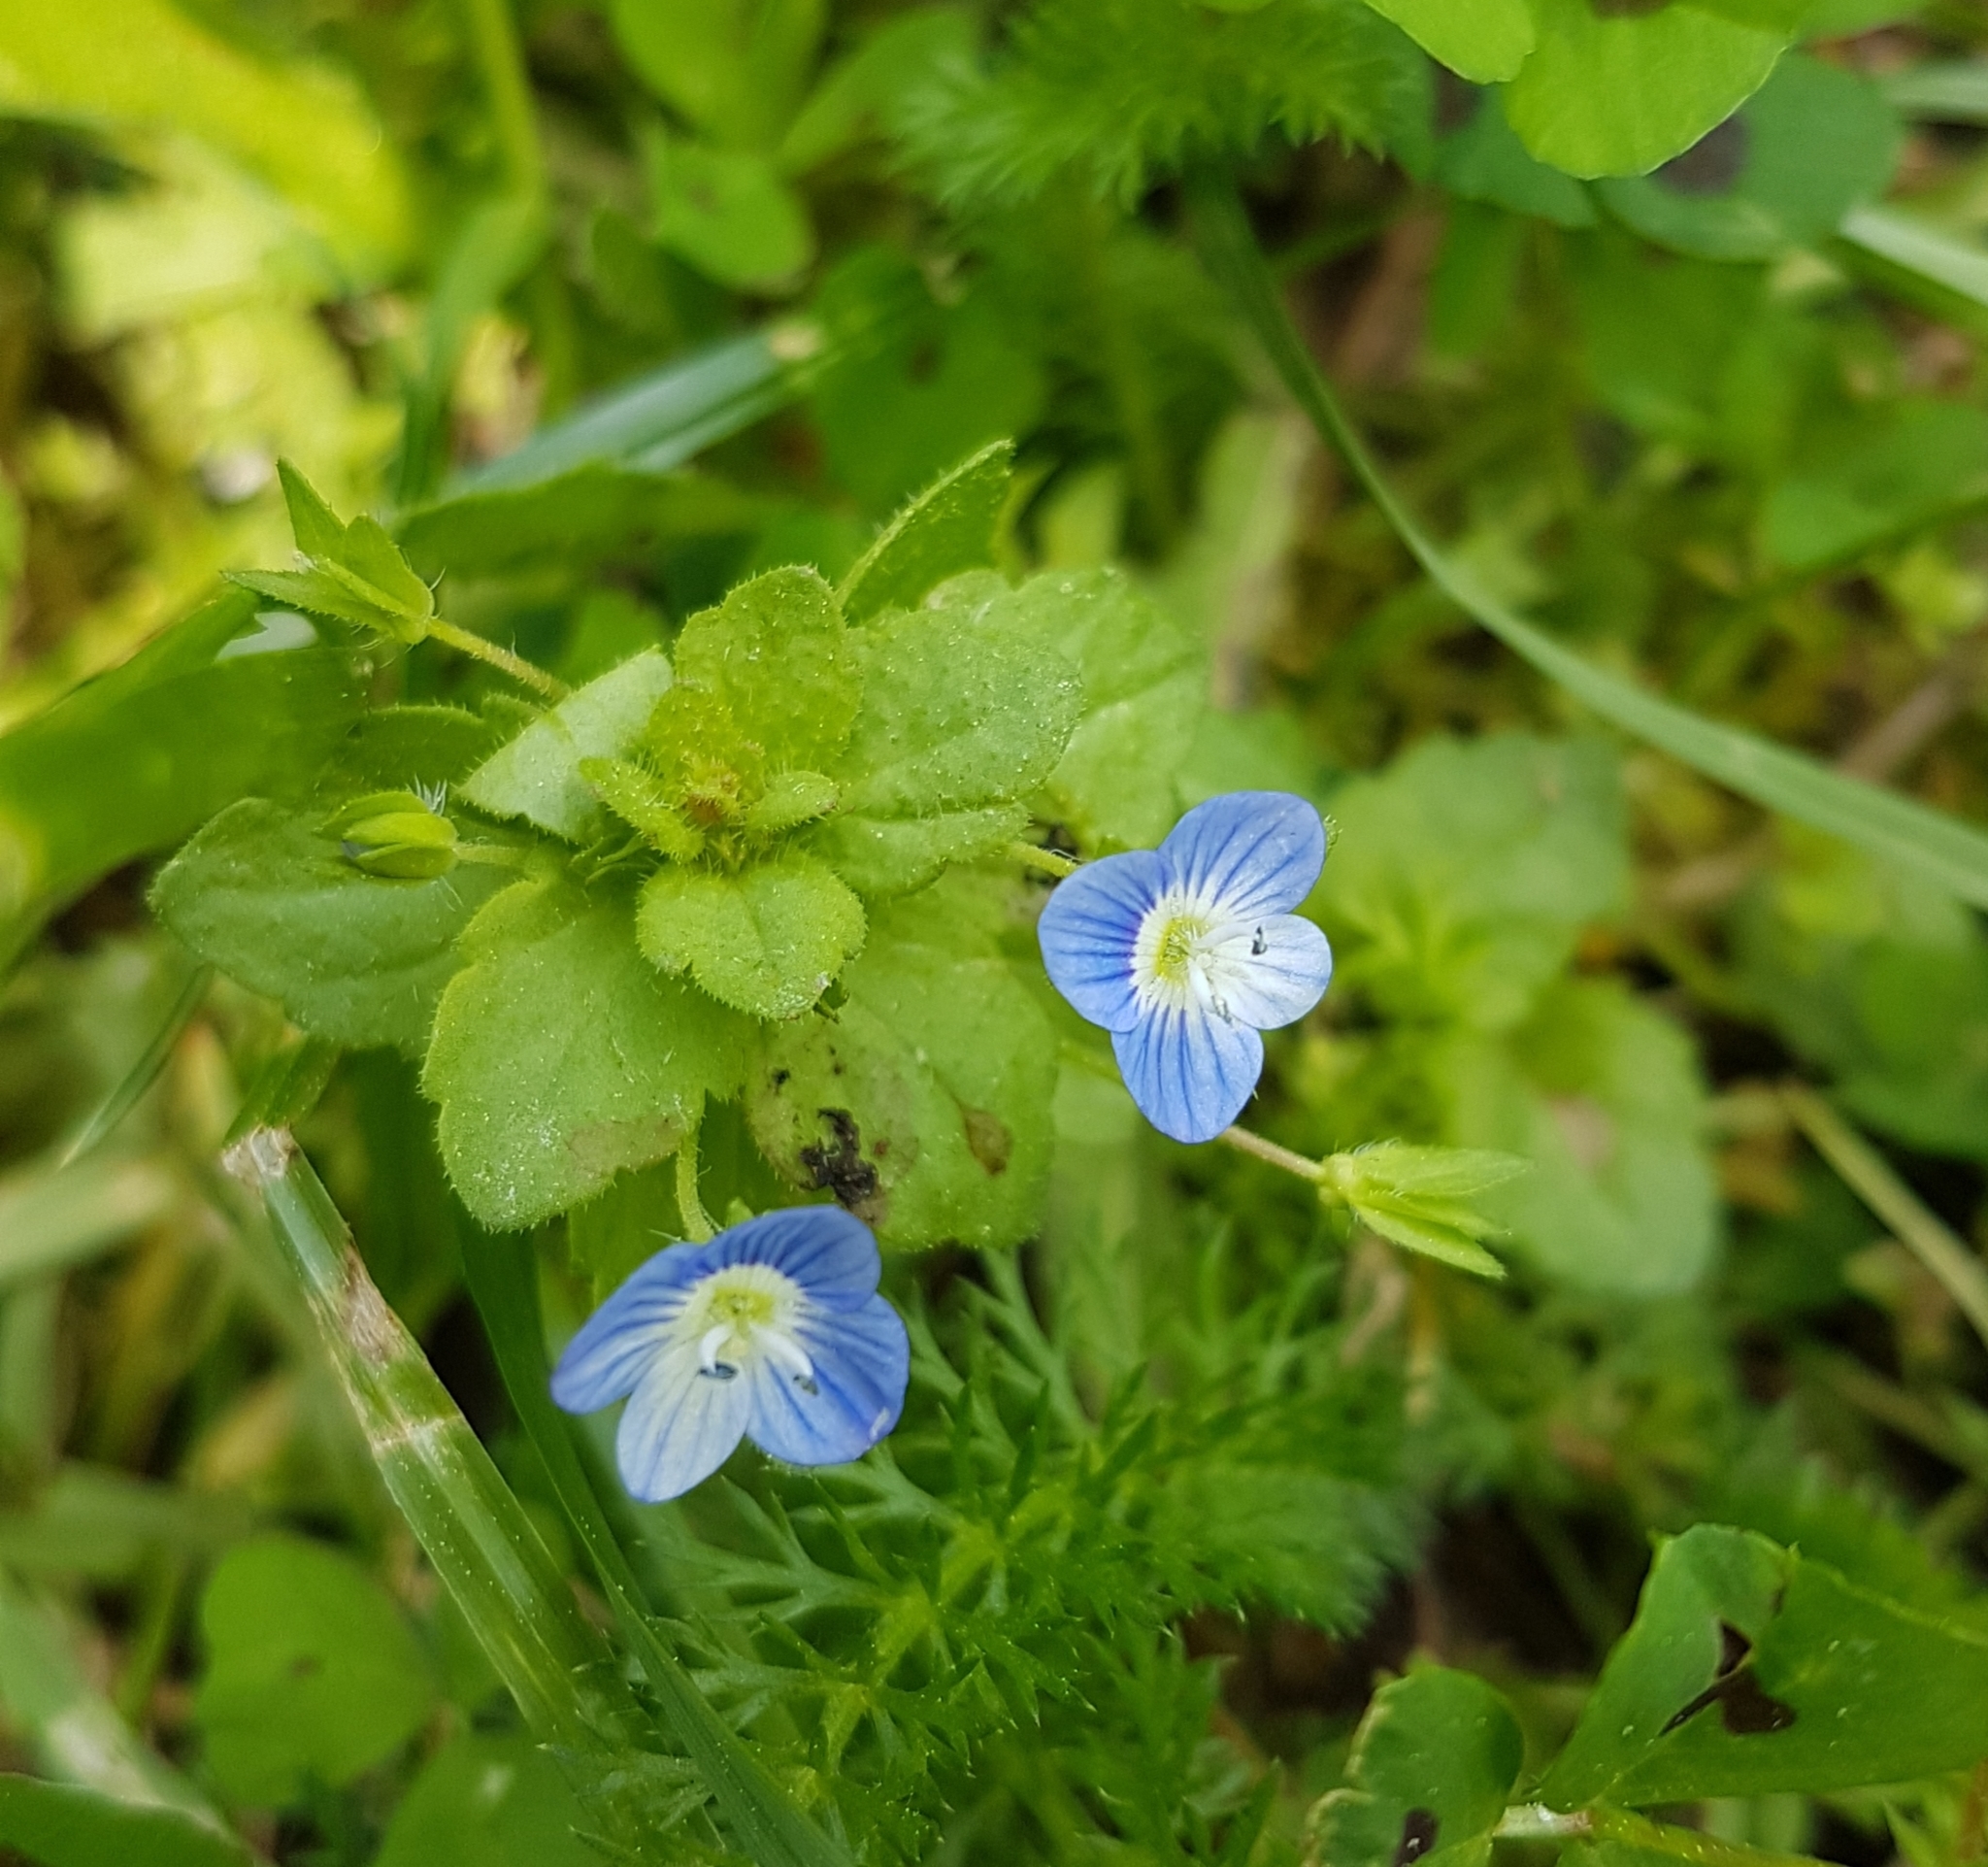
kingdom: Plantae
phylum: Tracheophyta
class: Magnoliopsida
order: Lamiales
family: Plantaginaceae
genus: Veronica
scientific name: Veronica persica
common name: Common field-speedwell
